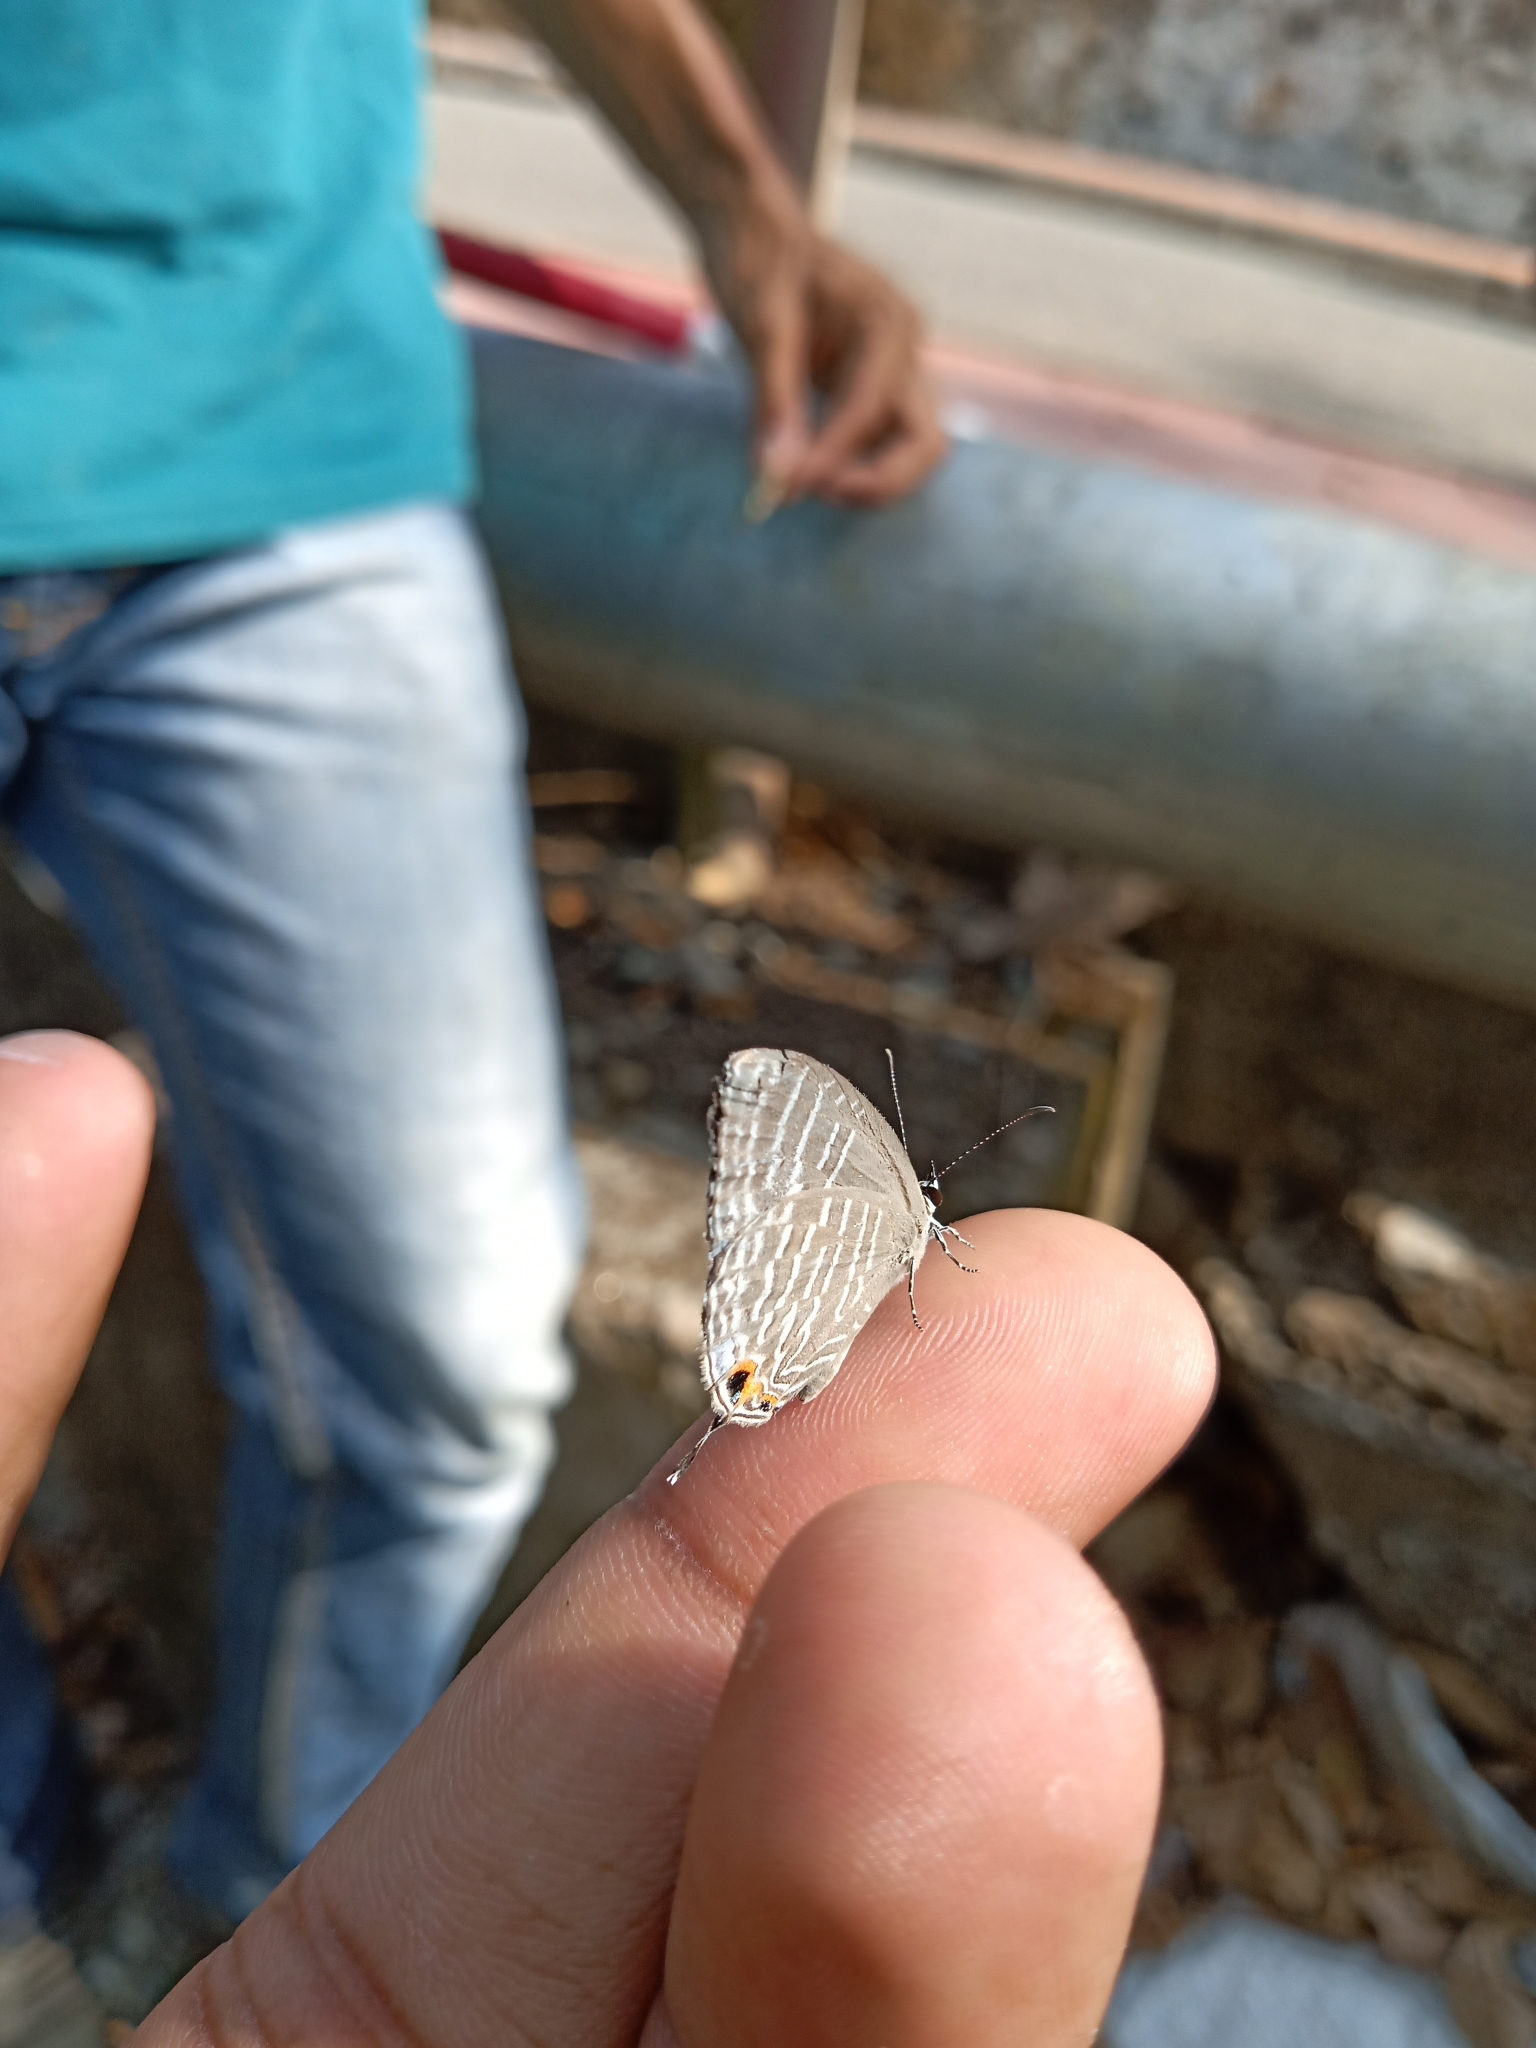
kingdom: Animalia
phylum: Arthropoda
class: Insecta
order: Lepidoptera
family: Lycaenidae
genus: Jamides
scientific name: Jamides celeno
